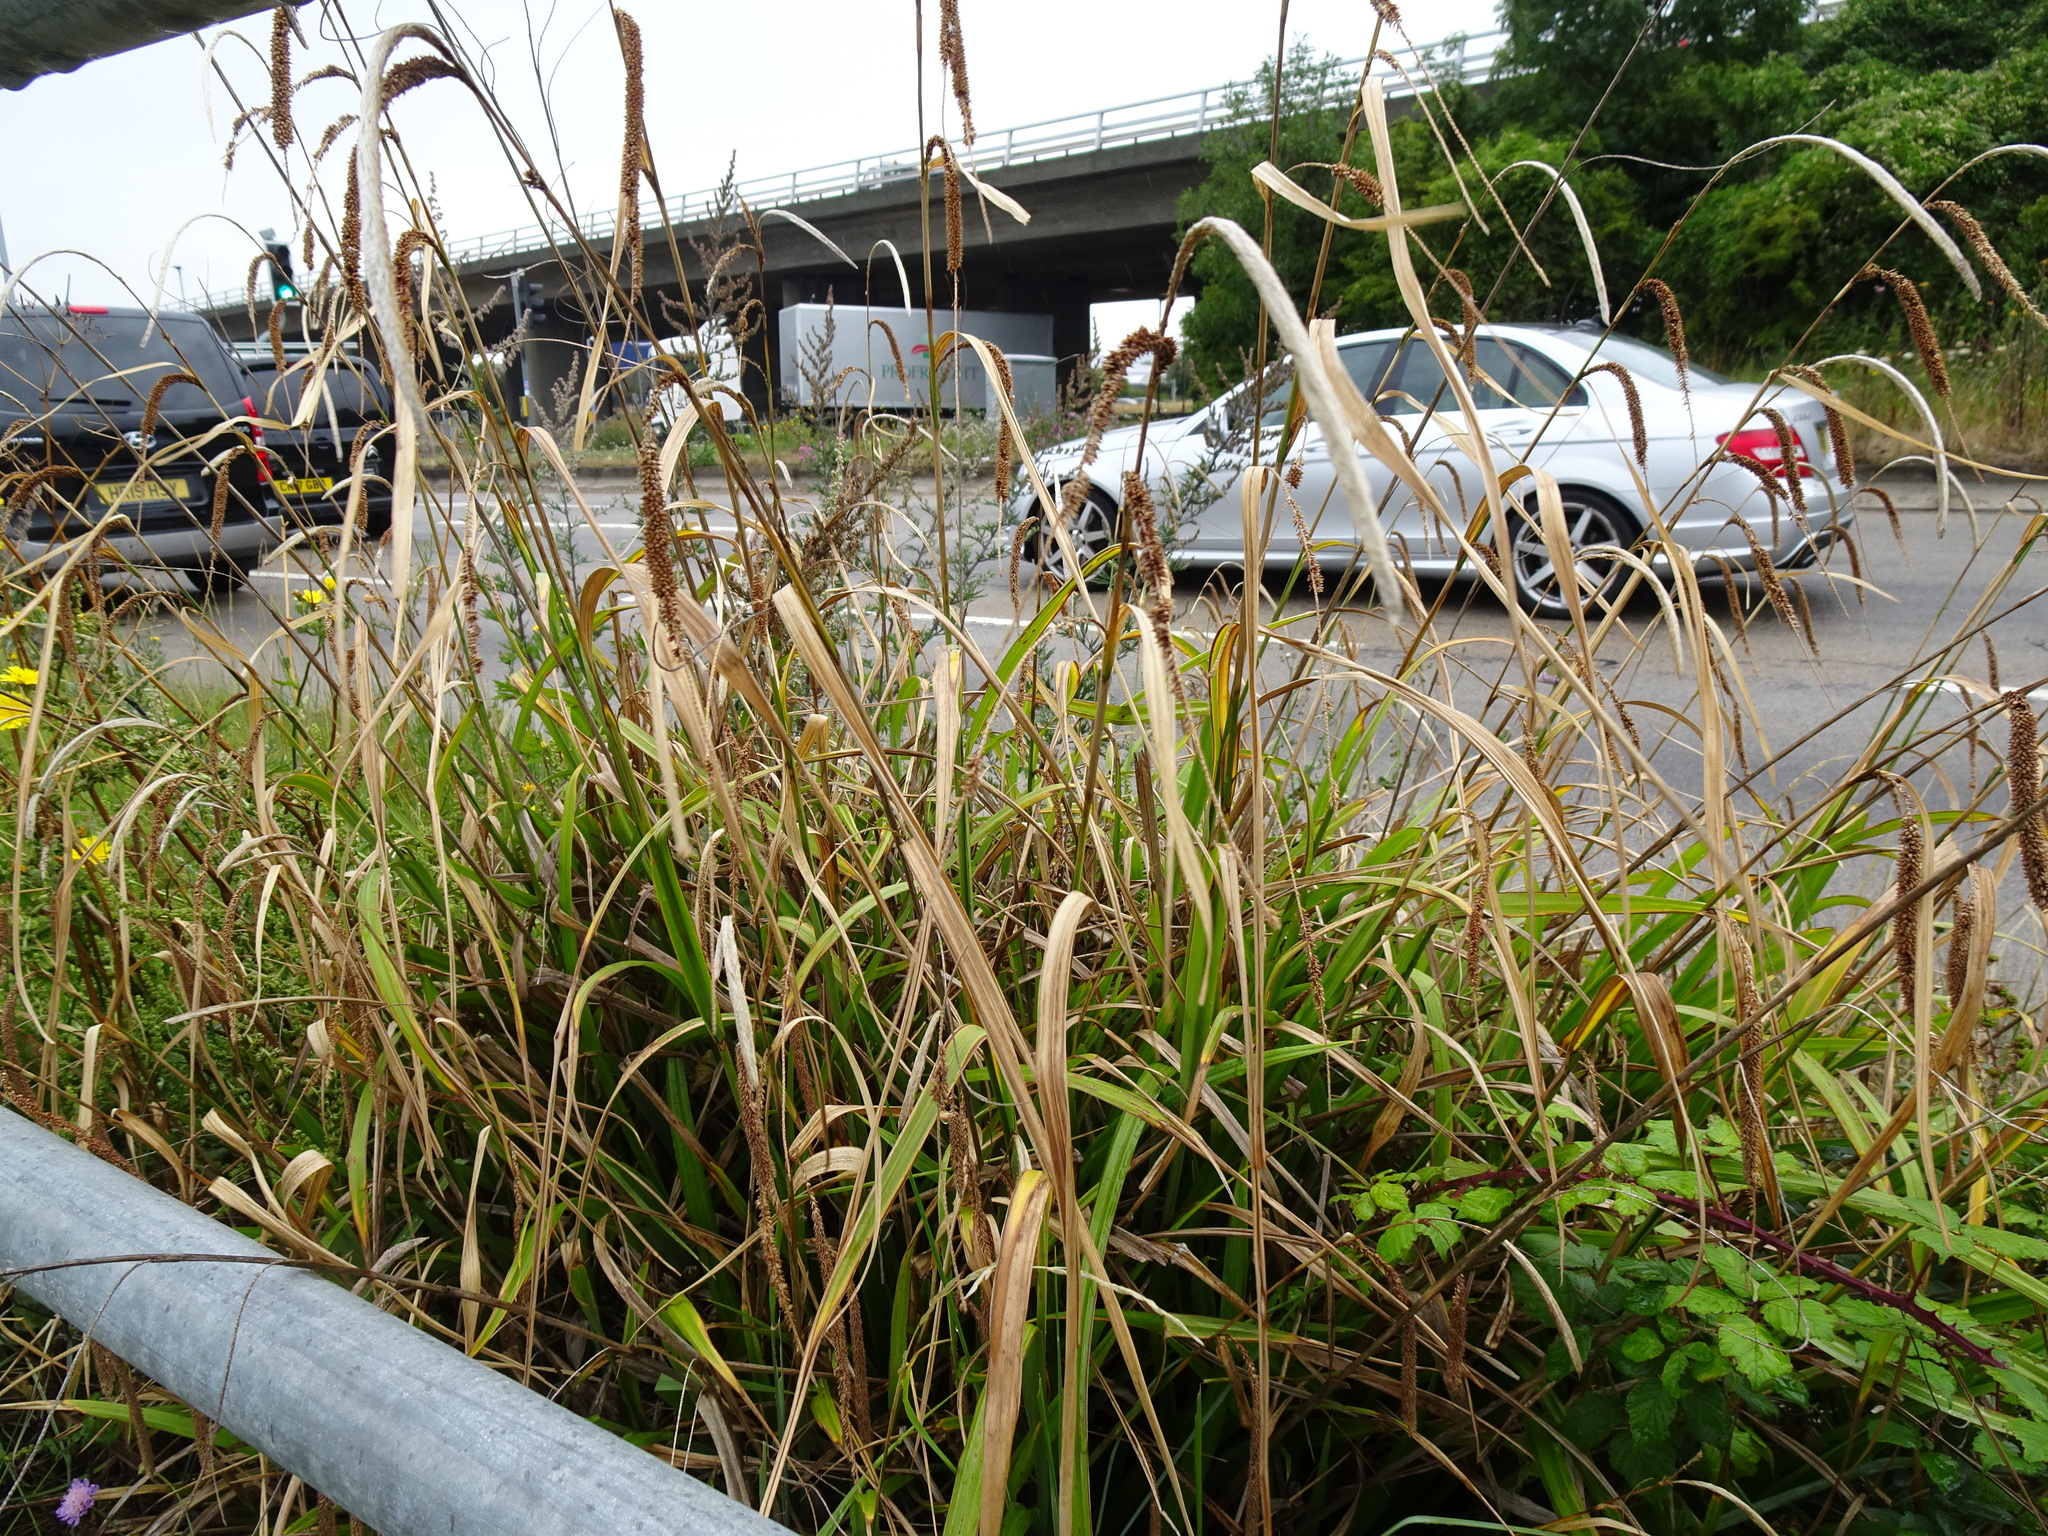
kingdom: Plantae
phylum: Tracheophyta
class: Liliopsida
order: Poales
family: Cyperaceae
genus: Carex
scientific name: Carex pendula
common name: Pendulous sedge
